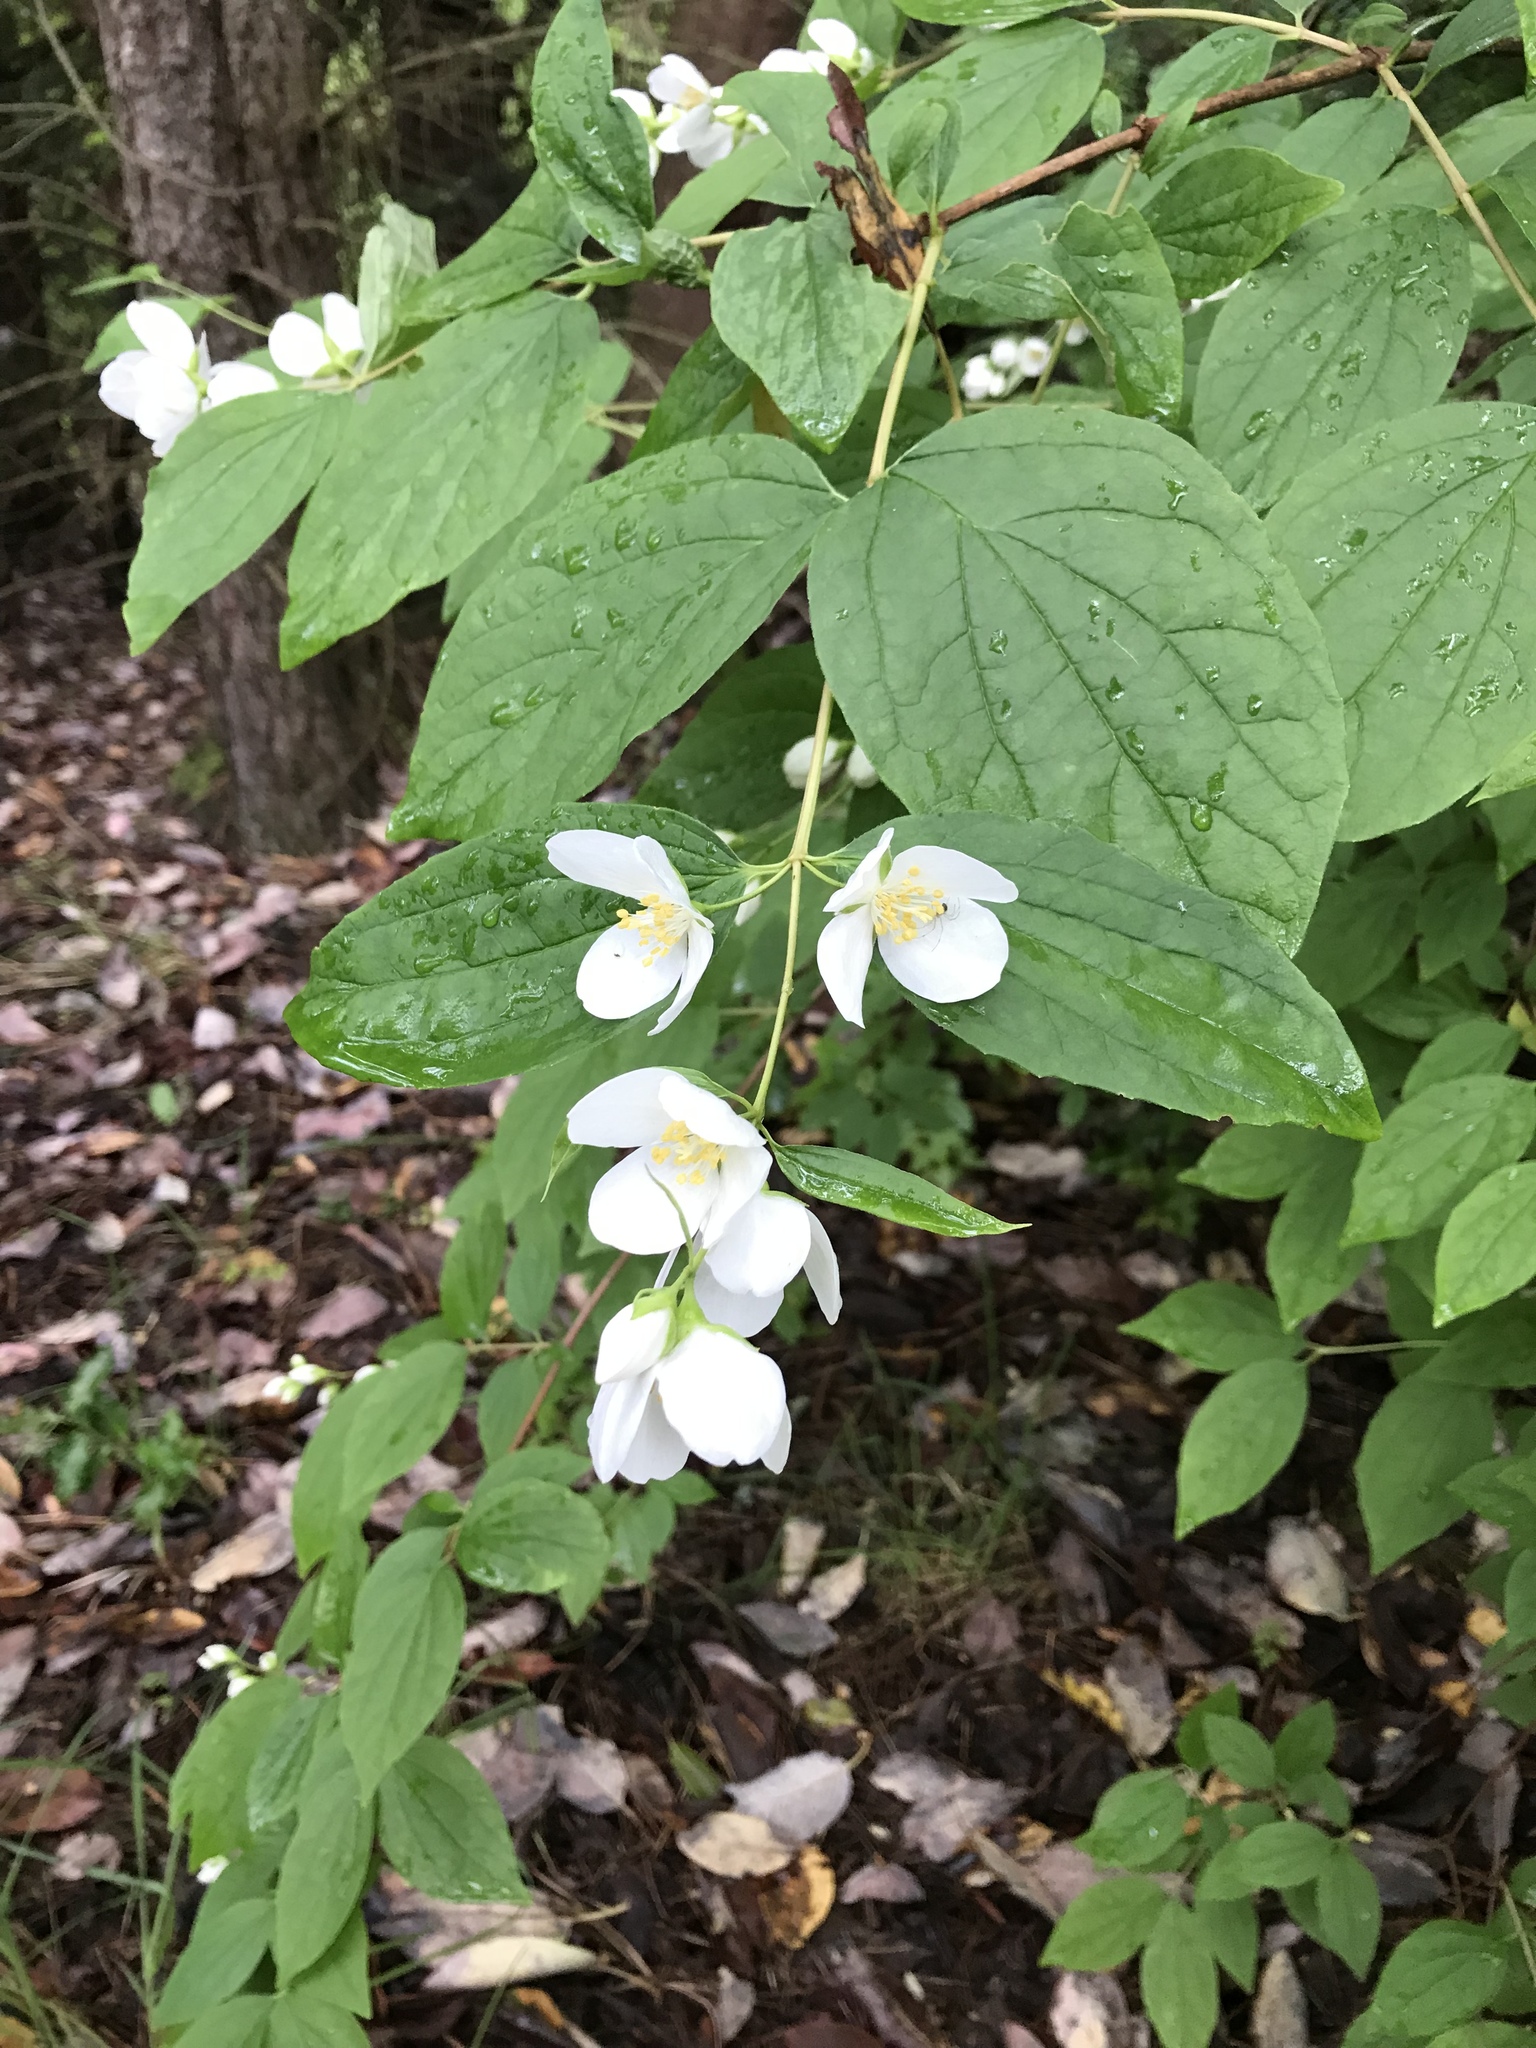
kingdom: Plantae
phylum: Tracheophyta
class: Magnoliopsida
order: Cornales
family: Hydrangeaceae
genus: Philadelphus
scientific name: Philadelphus lewisii
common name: Lewis's mock orange
